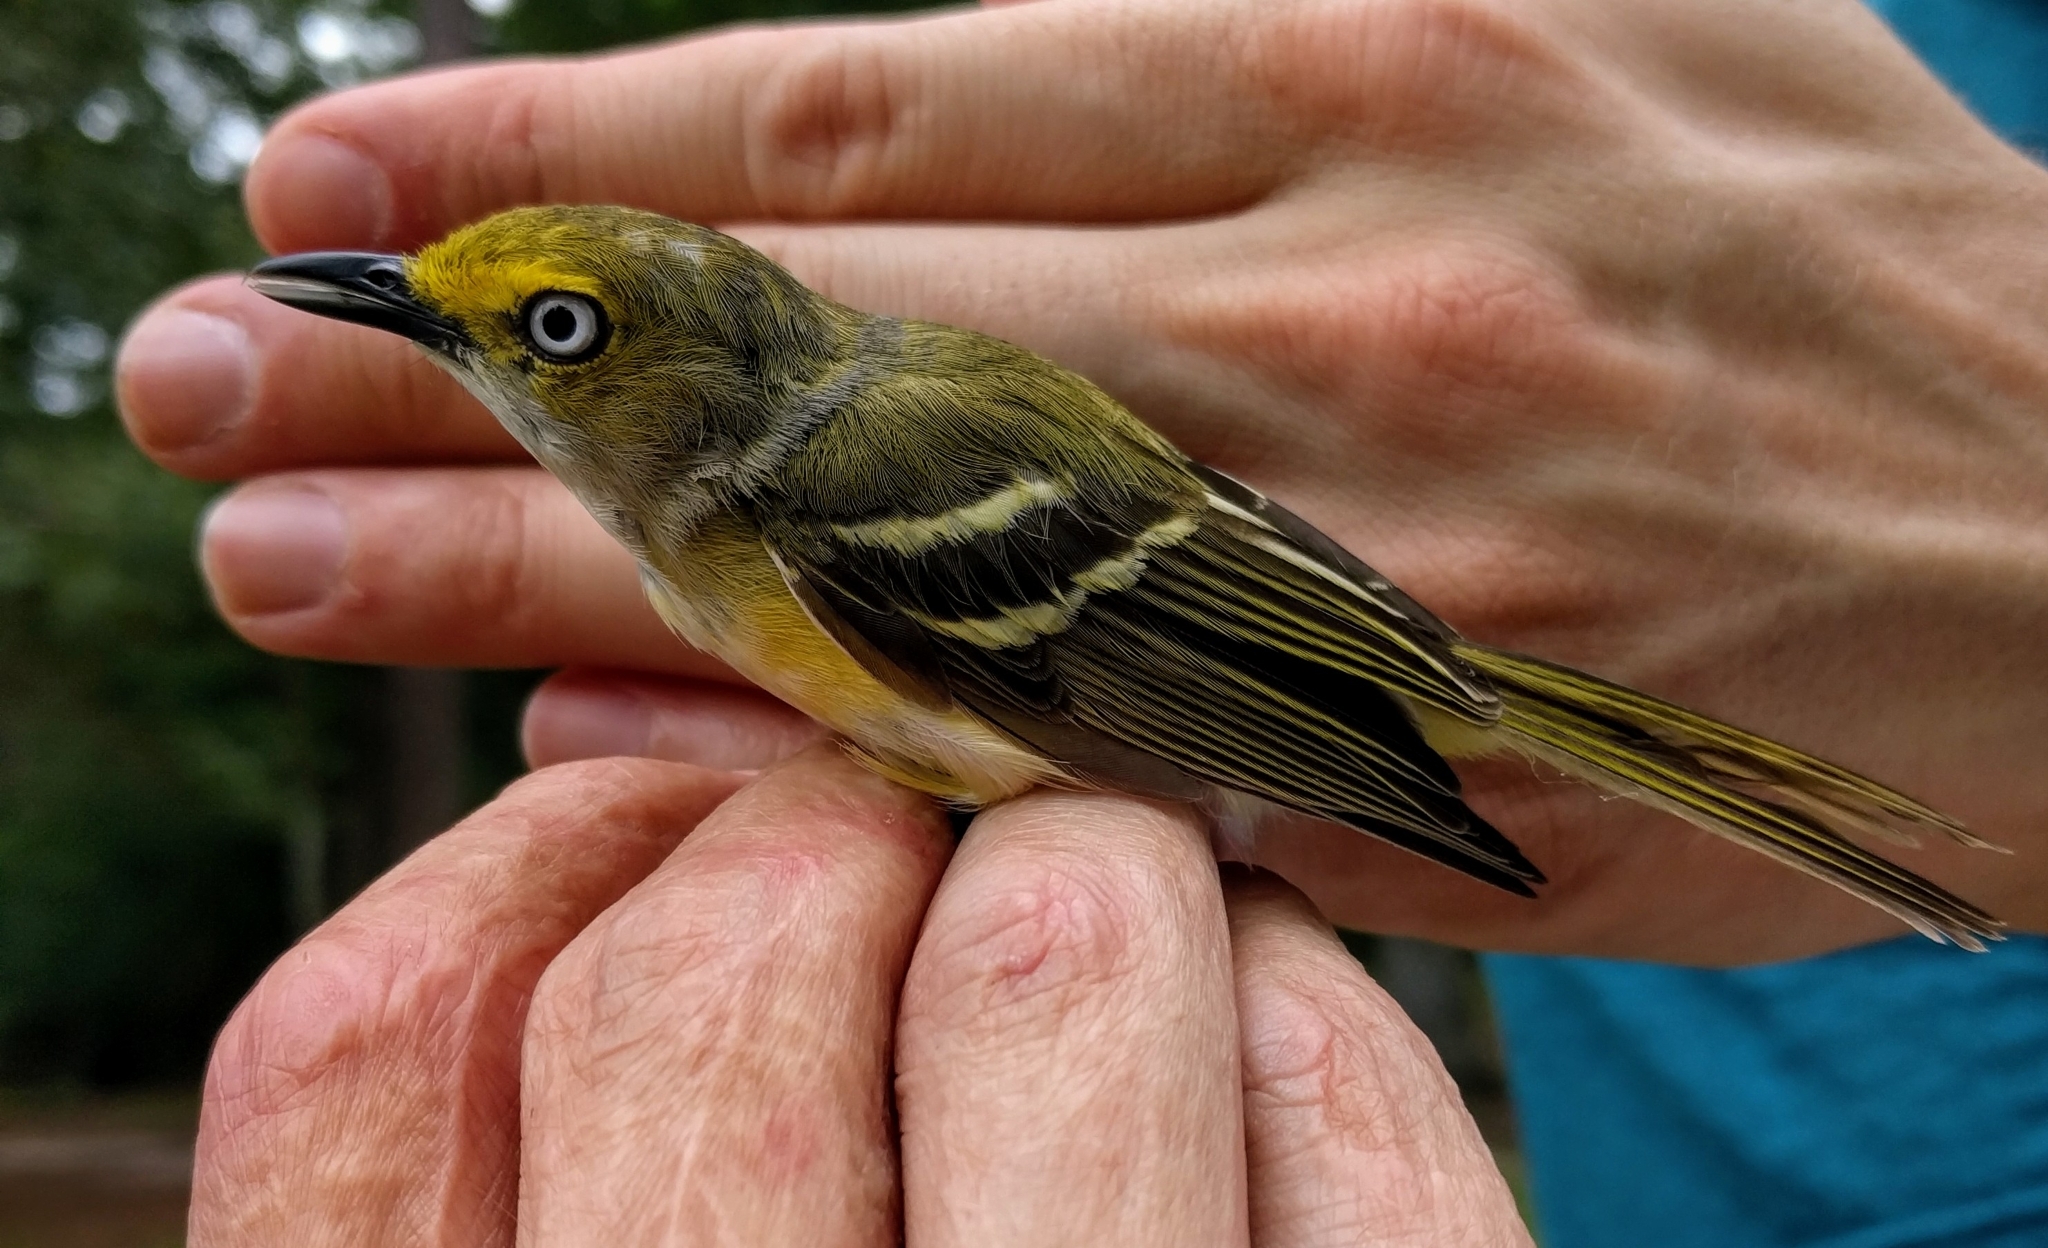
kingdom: Animalia
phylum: Chordata
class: Aves
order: Passeriformes
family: Vireonidae
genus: Vireo
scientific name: Vireo griseus
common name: White-eyed vireo
